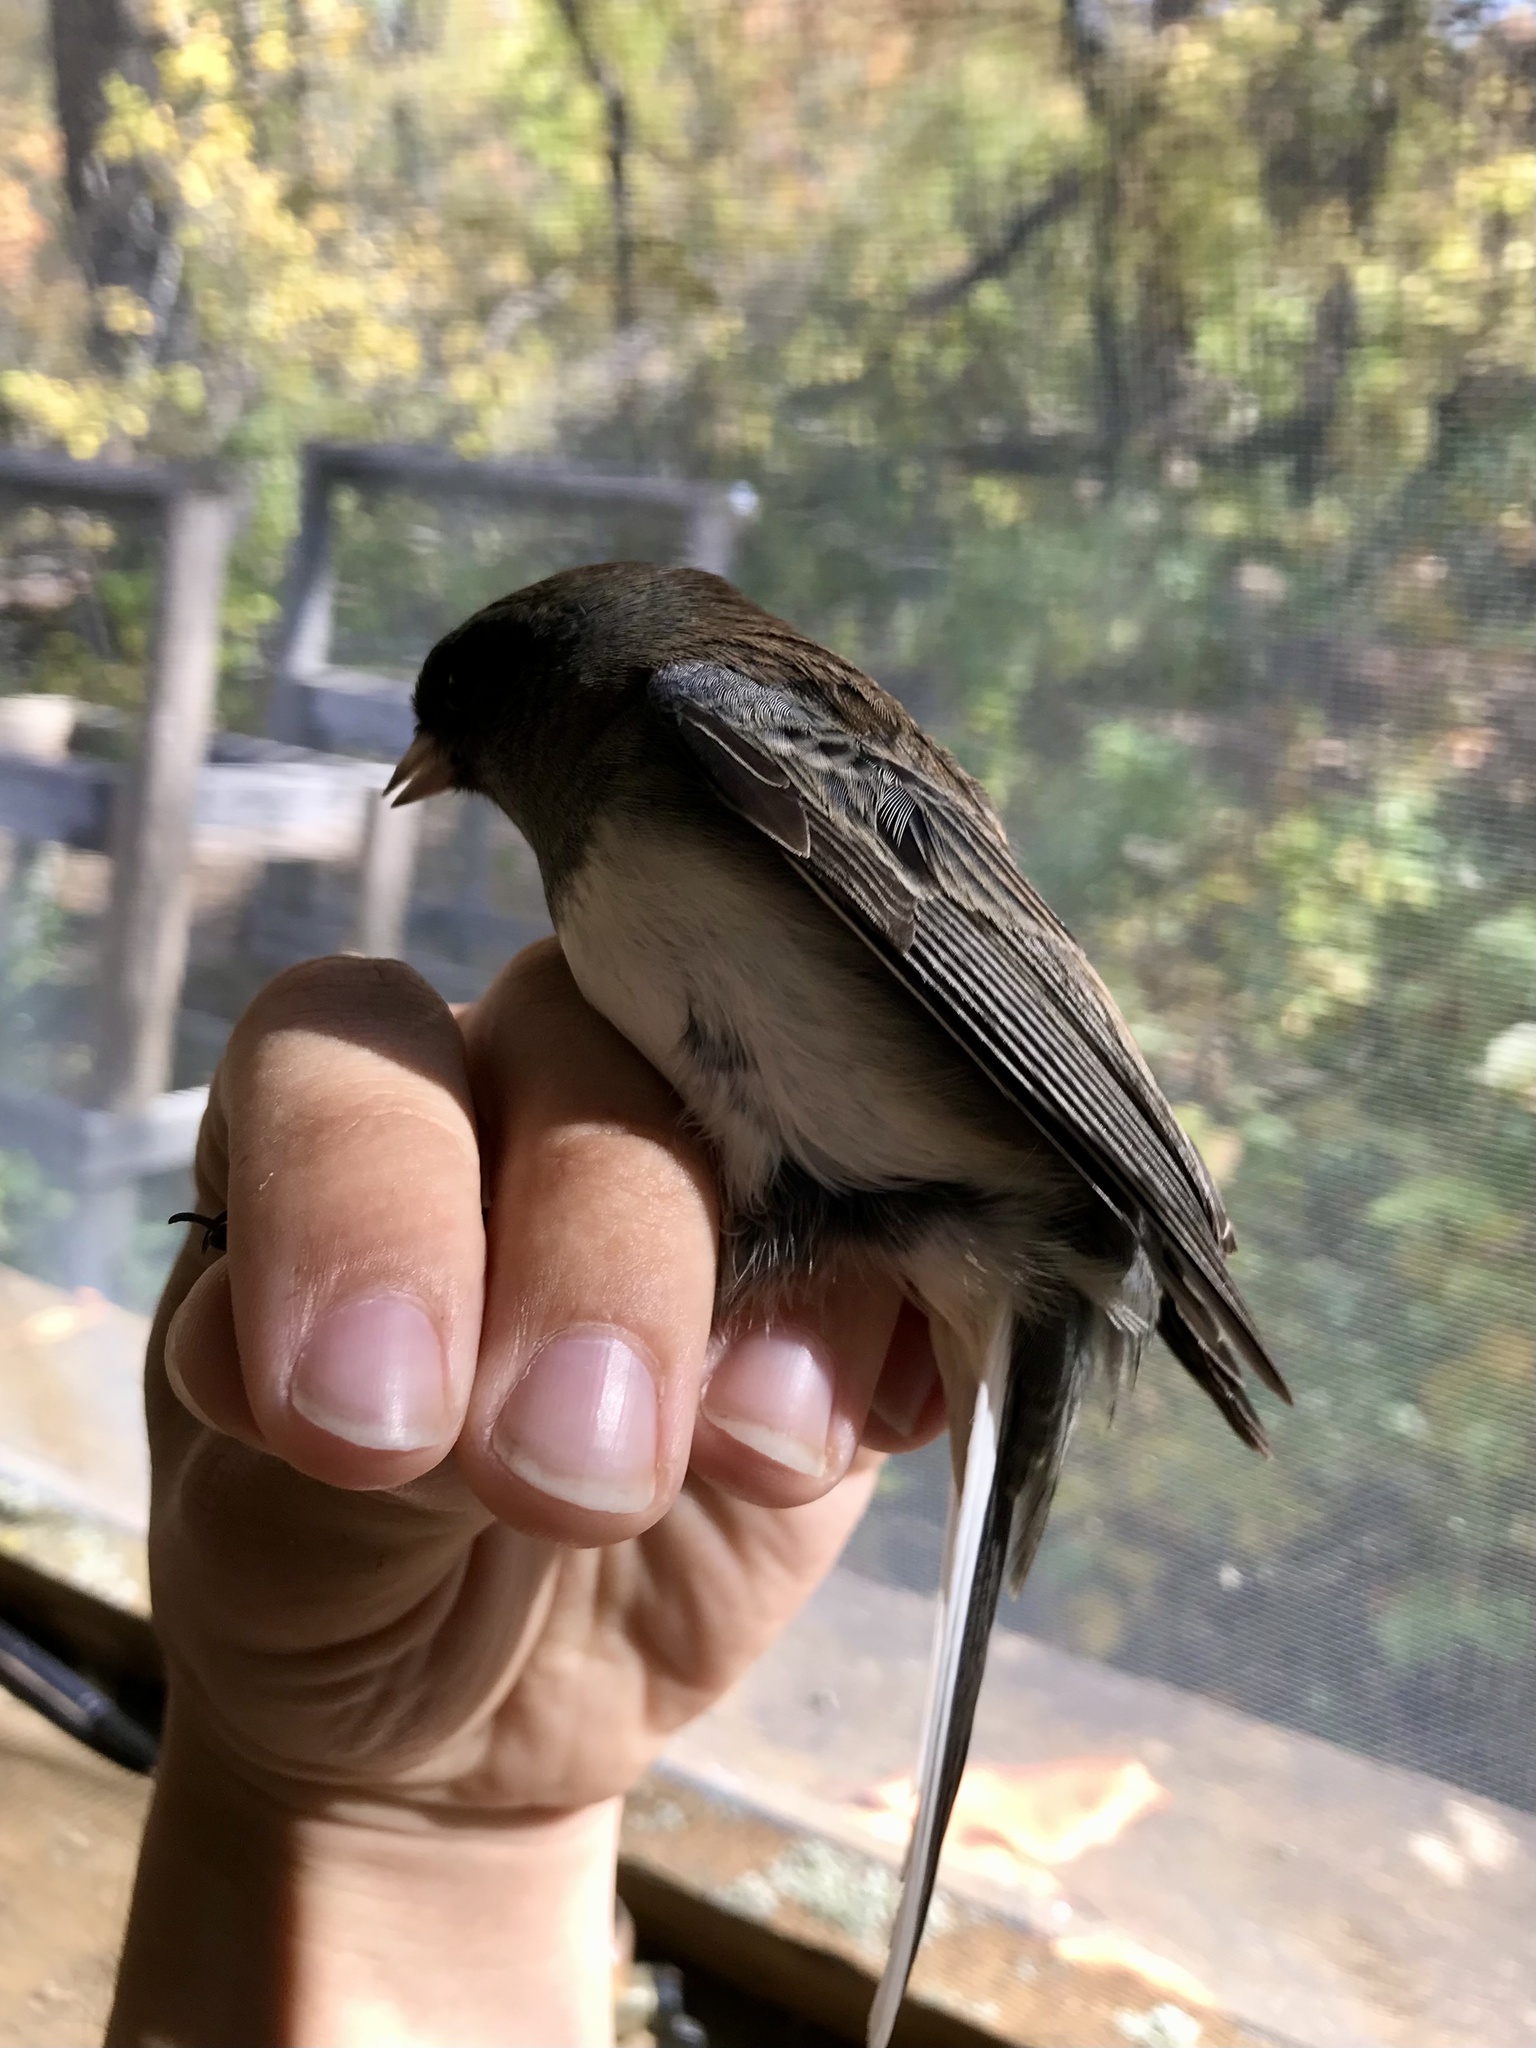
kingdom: Animalia
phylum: Chordata
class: Aves
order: Passeriformes
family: Passerellidae
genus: Junco
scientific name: Junco hyemalis
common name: Dark-eyed junco
